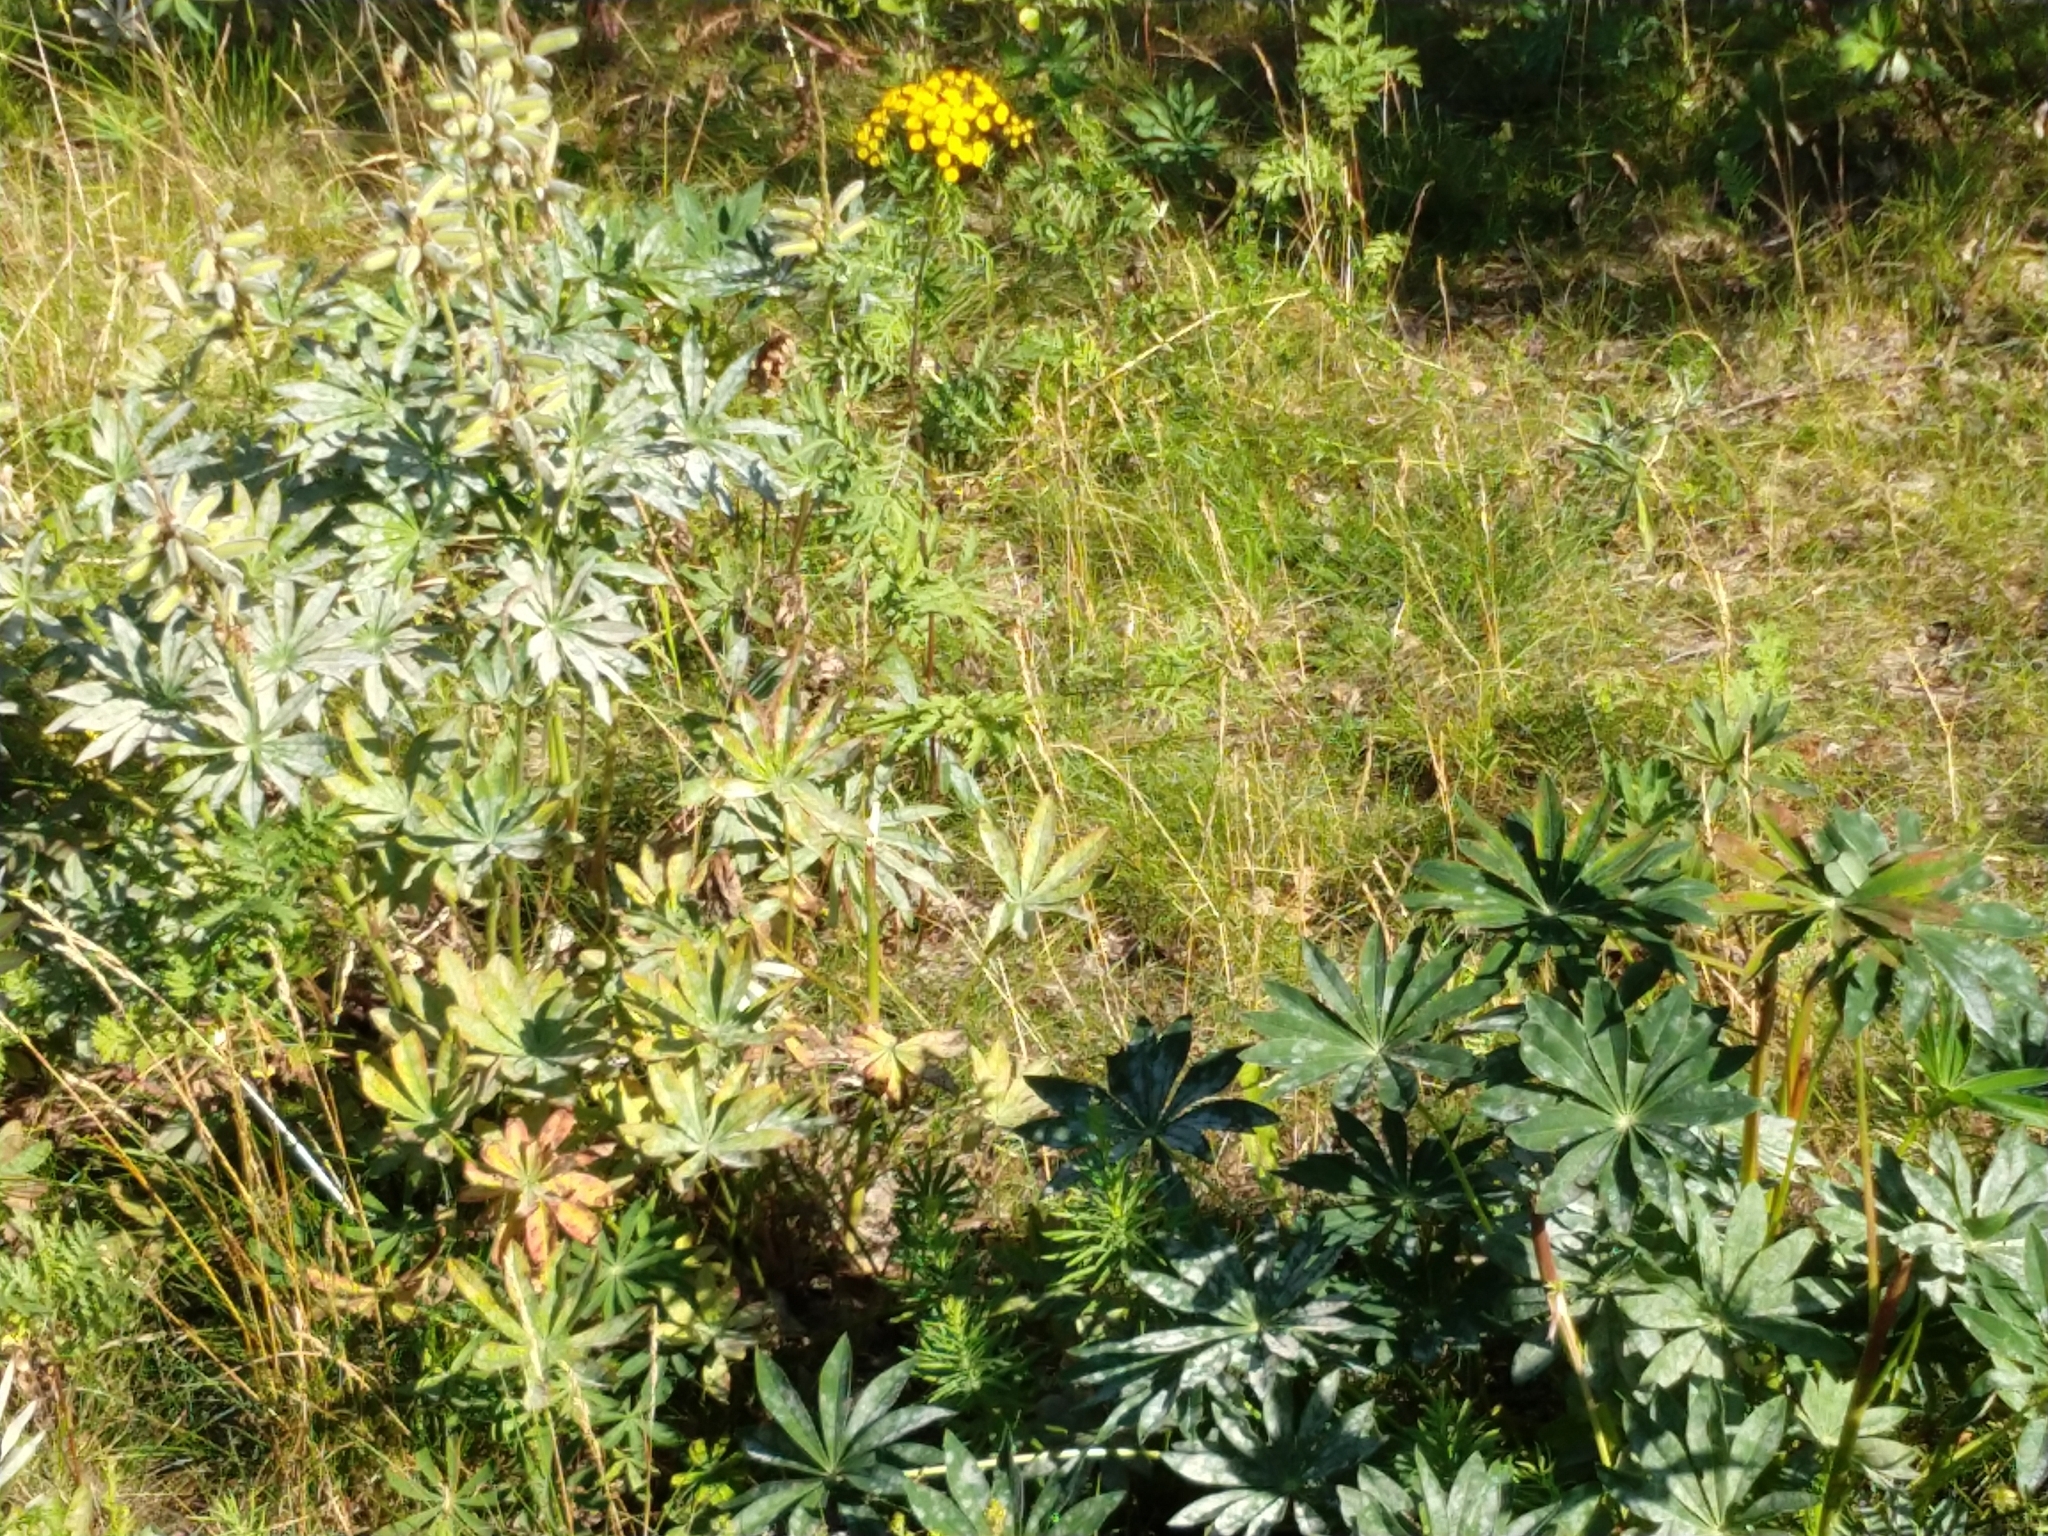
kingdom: Plantae
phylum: Tracheophyta
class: Magnoliopsida
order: Fabales
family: Fabaceae
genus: Lupinus
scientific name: Lupinus polyphyllus
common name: Garden lupin
